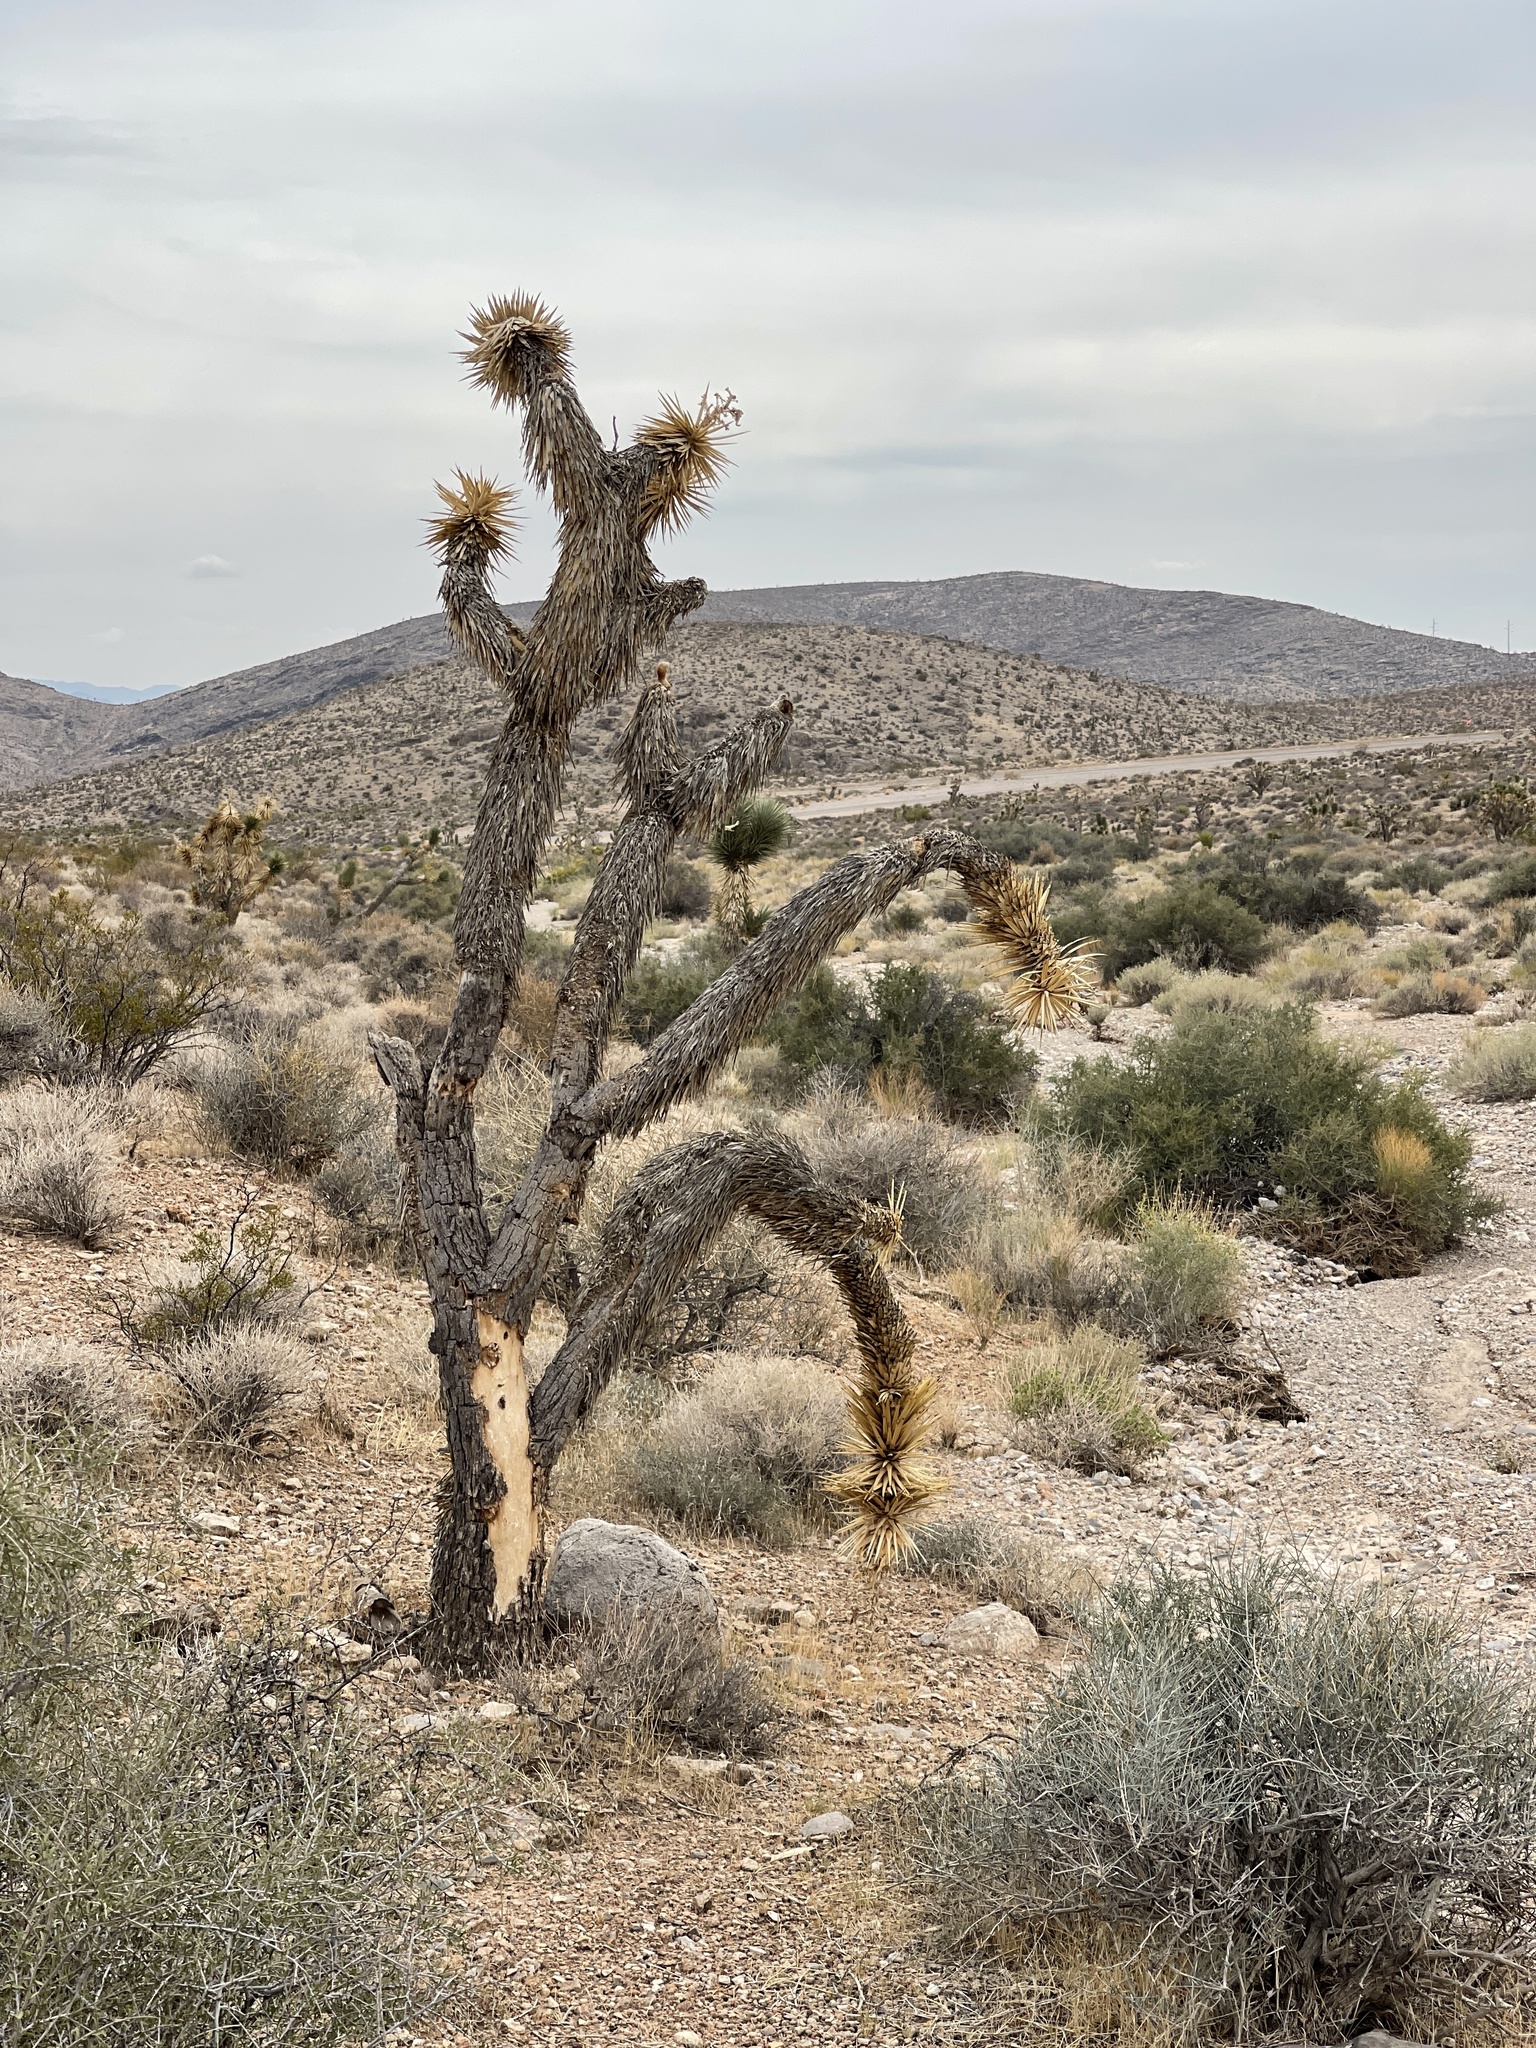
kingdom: Plantae
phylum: Tracheophyta
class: Liliopsida
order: Asparagales
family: Asparagaceae
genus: Yucca
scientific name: Yucca brevifolia
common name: Joshua tree
